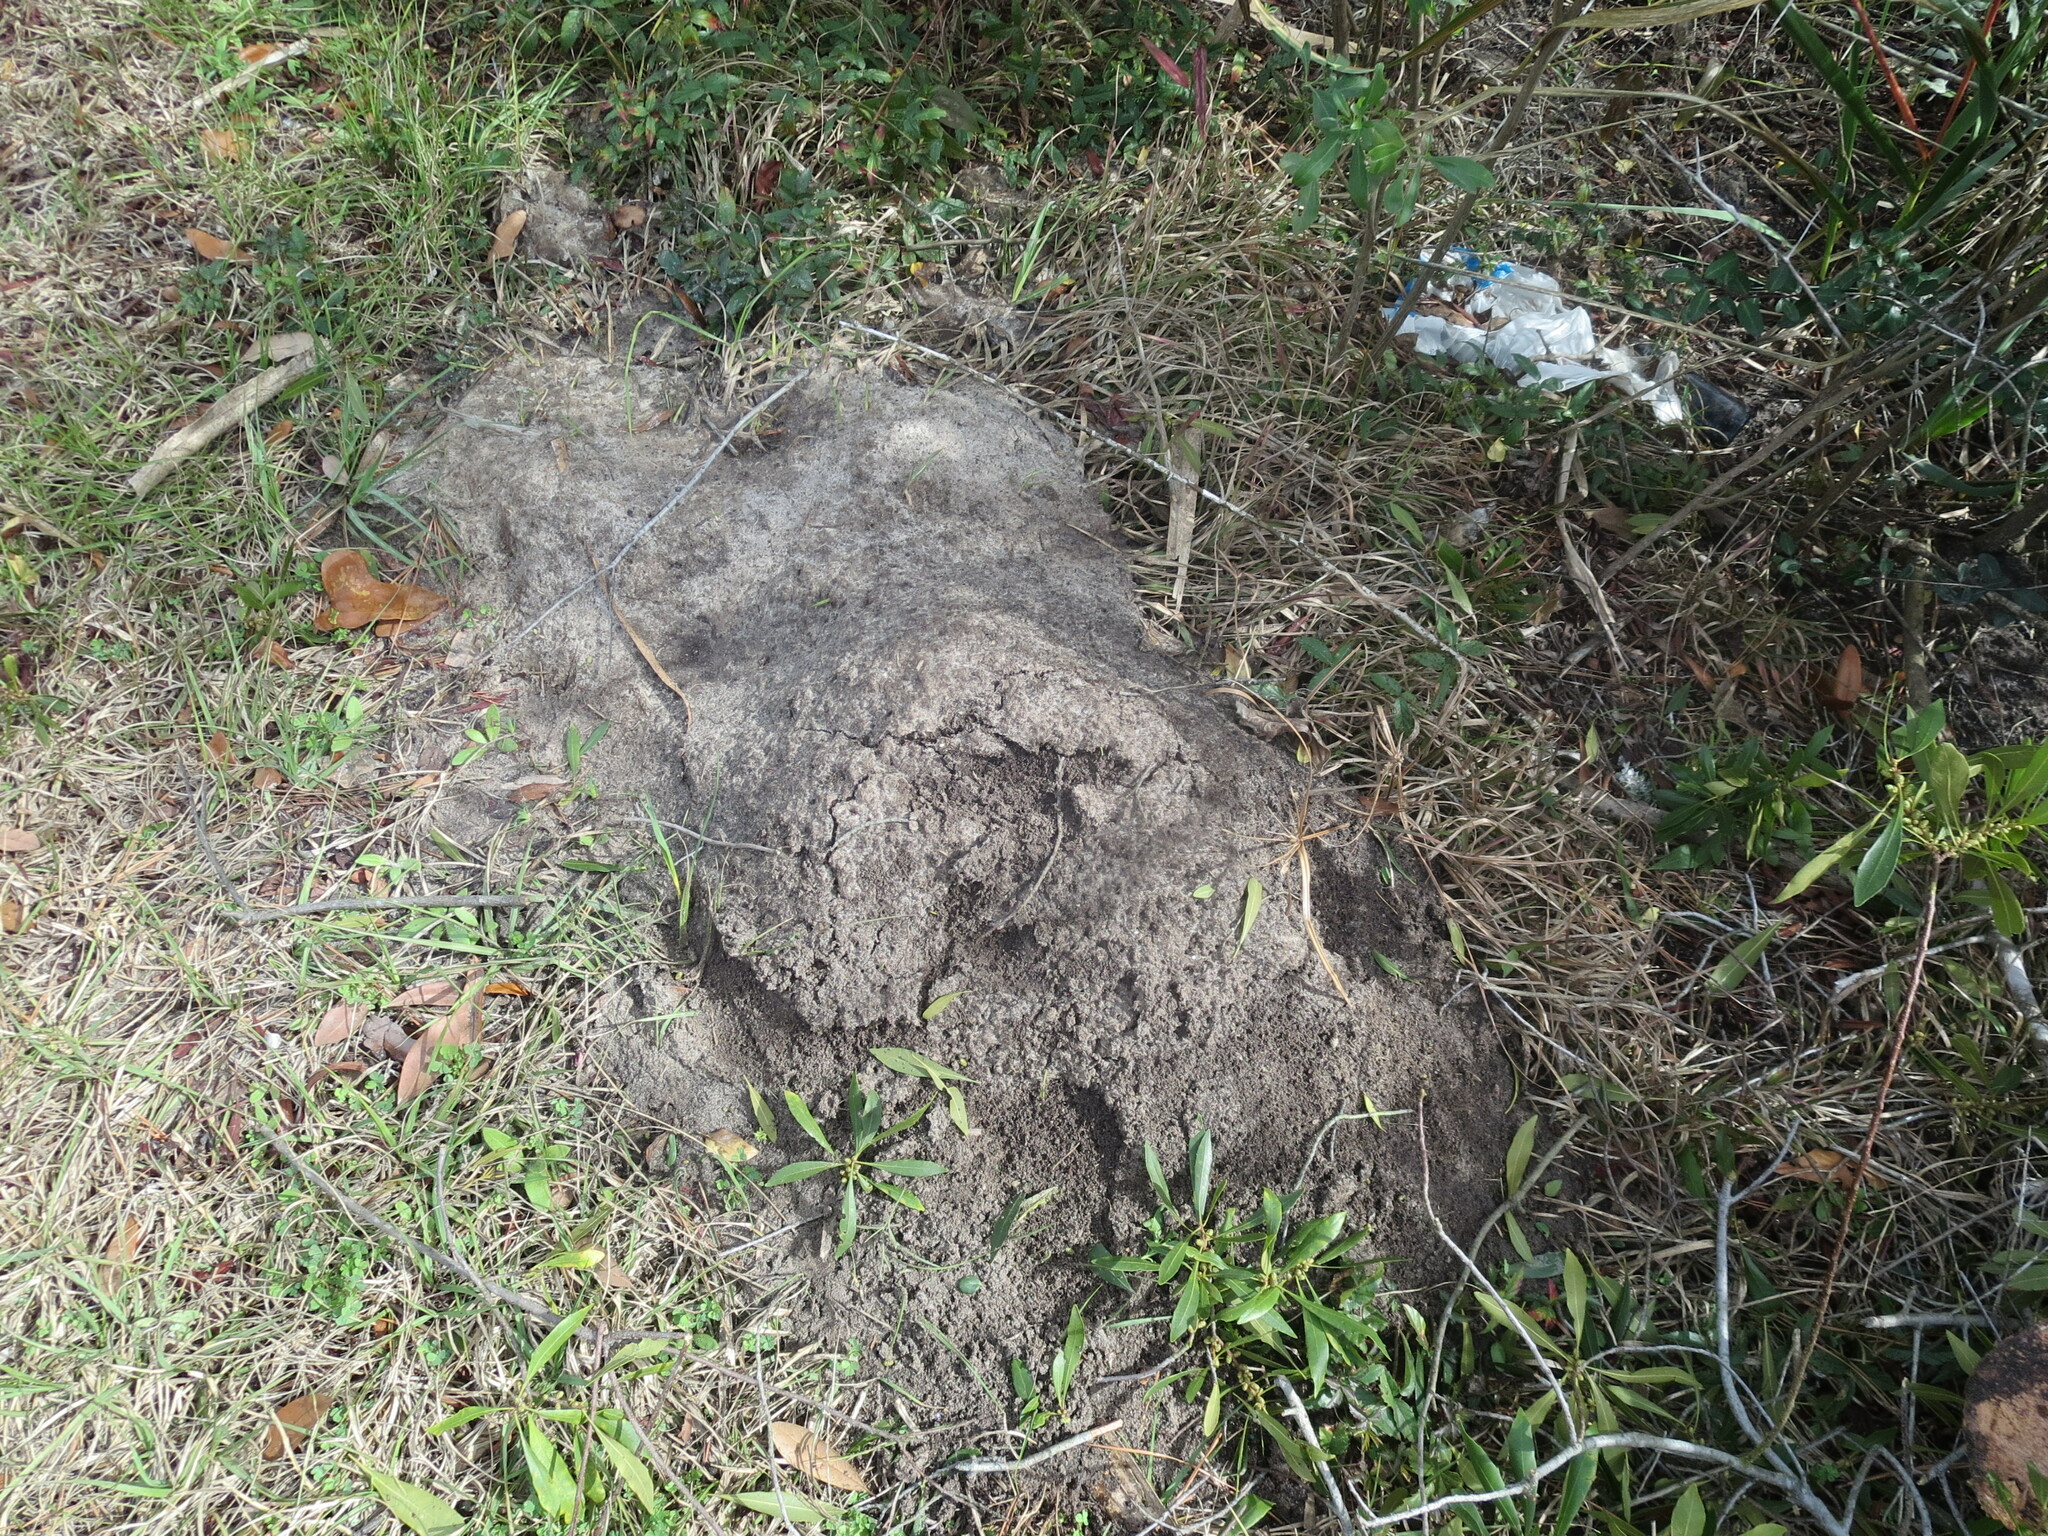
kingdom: Animalia
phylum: Arthropoda
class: Insecta
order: Hymenoptera
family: Formicidae
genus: Solenopsis
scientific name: Solenopsis invicta
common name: Red imported fire ant
